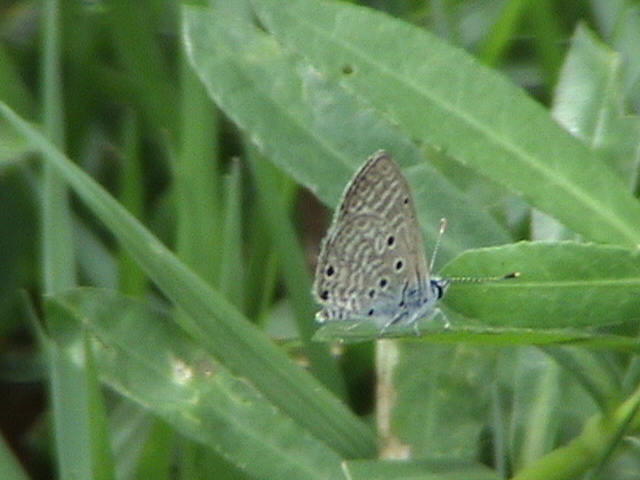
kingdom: Animalia
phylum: Arthropoda
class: Insecta
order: Lepidoptera
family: Lycaenidae
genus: Azanus
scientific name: Azanus ubaldus
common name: Desert babul blue
